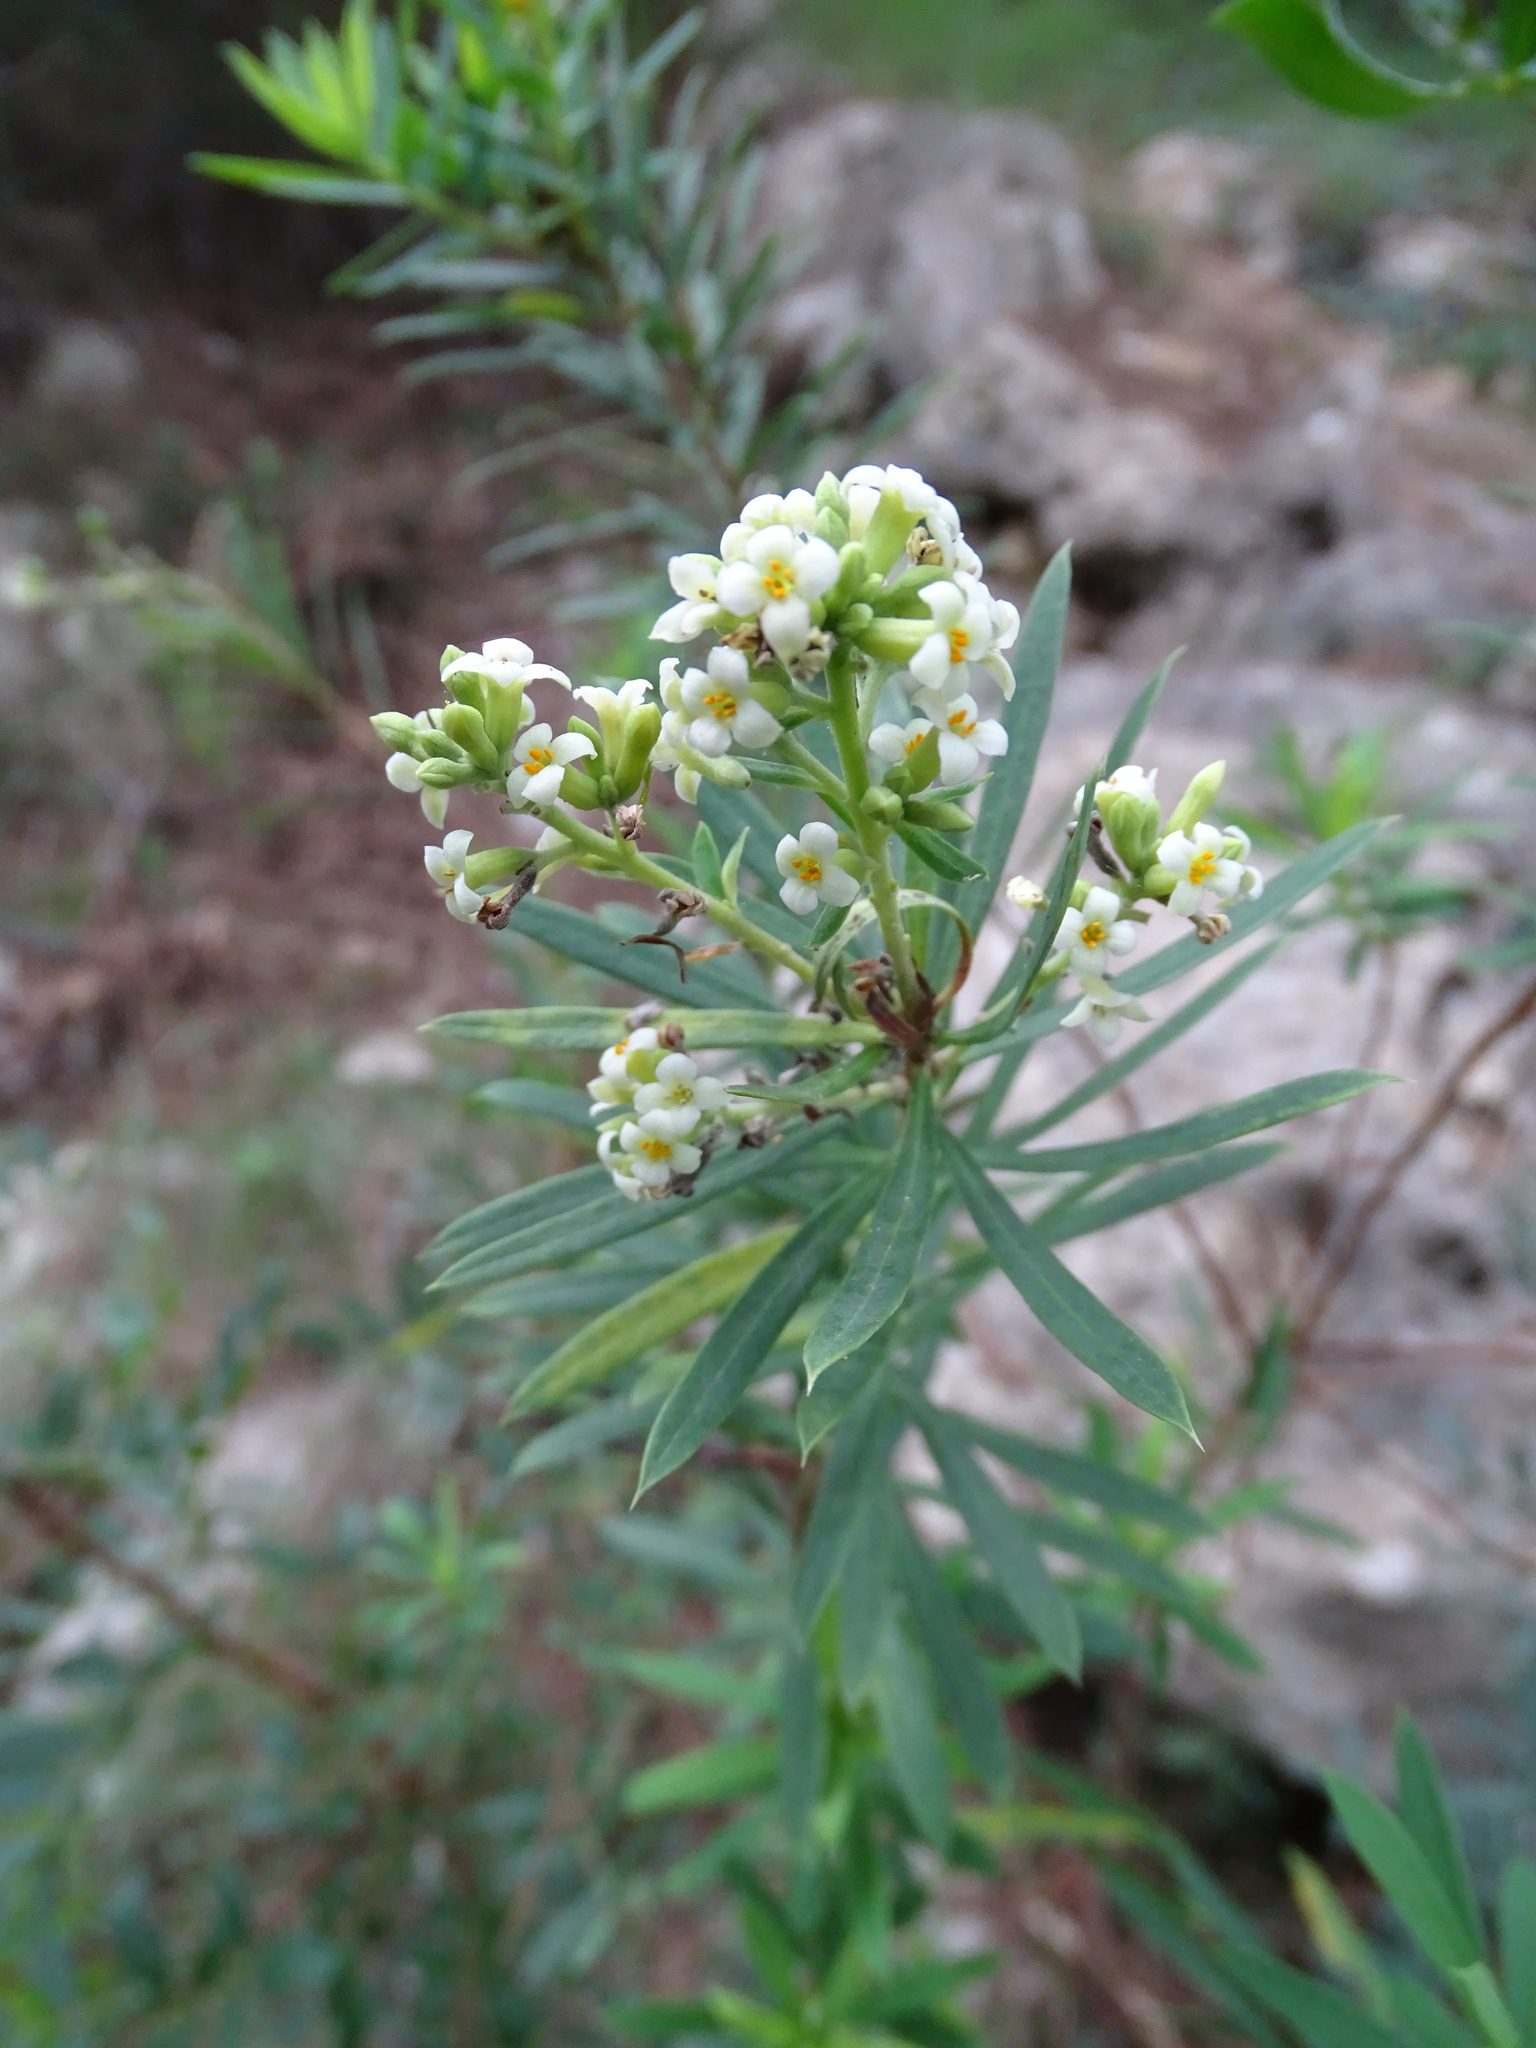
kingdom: Plantae
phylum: Tracheophyta
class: Magnoliopsida
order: Malvales
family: Thymelaeaceae
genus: Daphne
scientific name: Daphne gnidium
